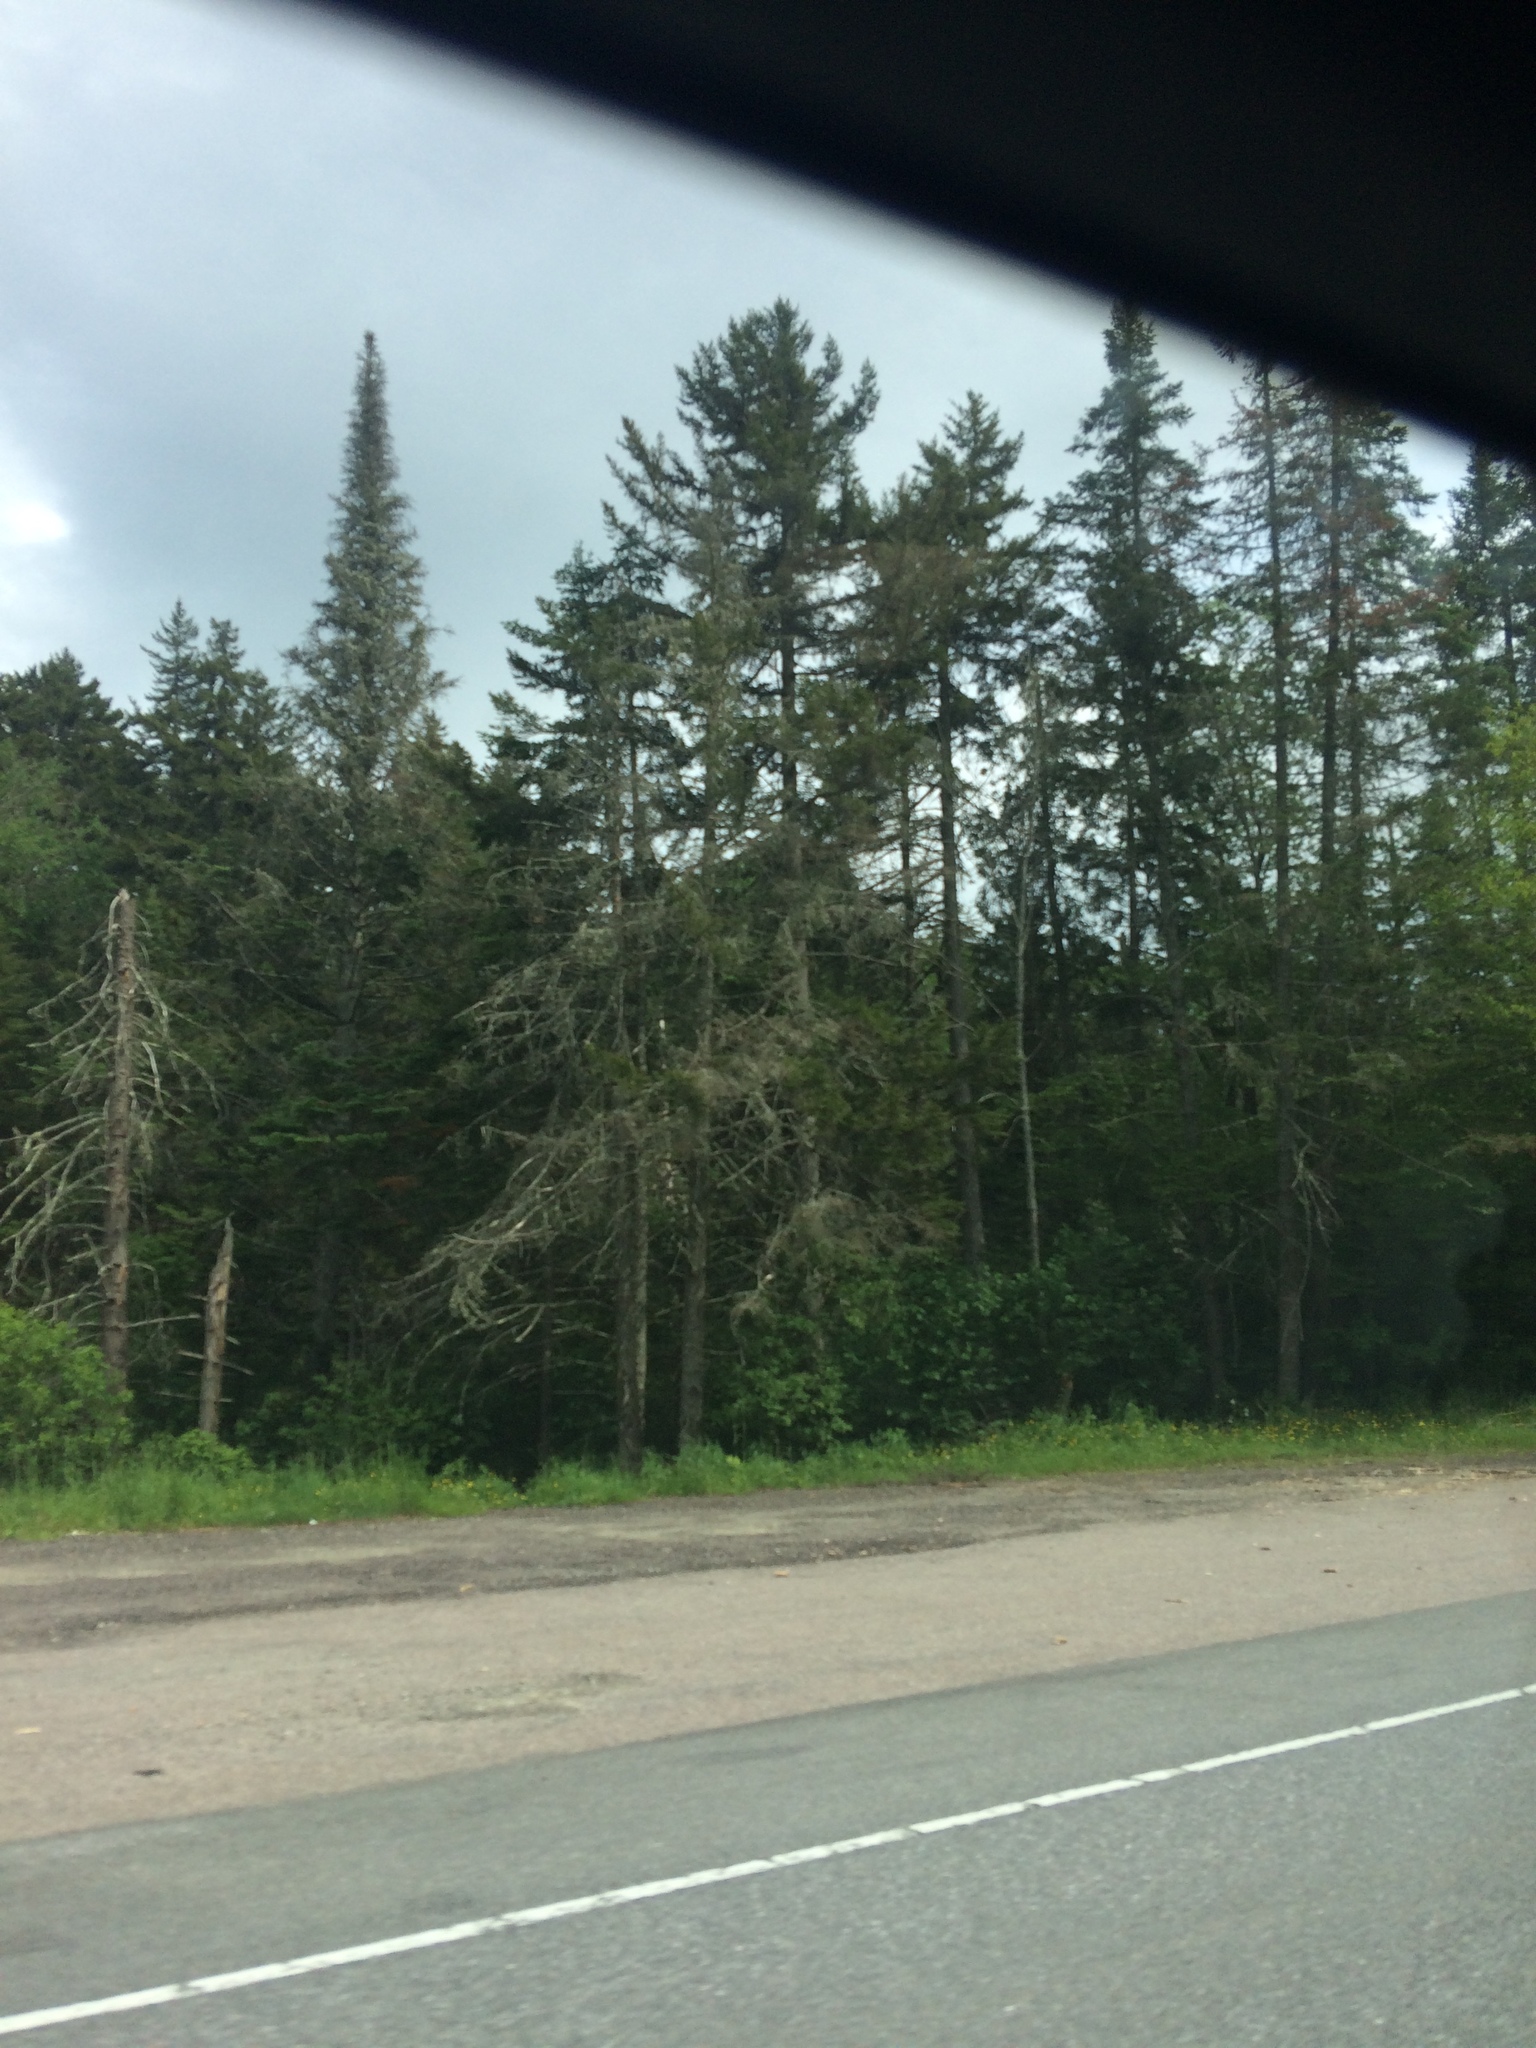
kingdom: Plantae
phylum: Tracheophyta
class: Pinopsida
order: Pinales
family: Pinaceae
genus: Abies
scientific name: Abies balsamea
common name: Balsam fir
